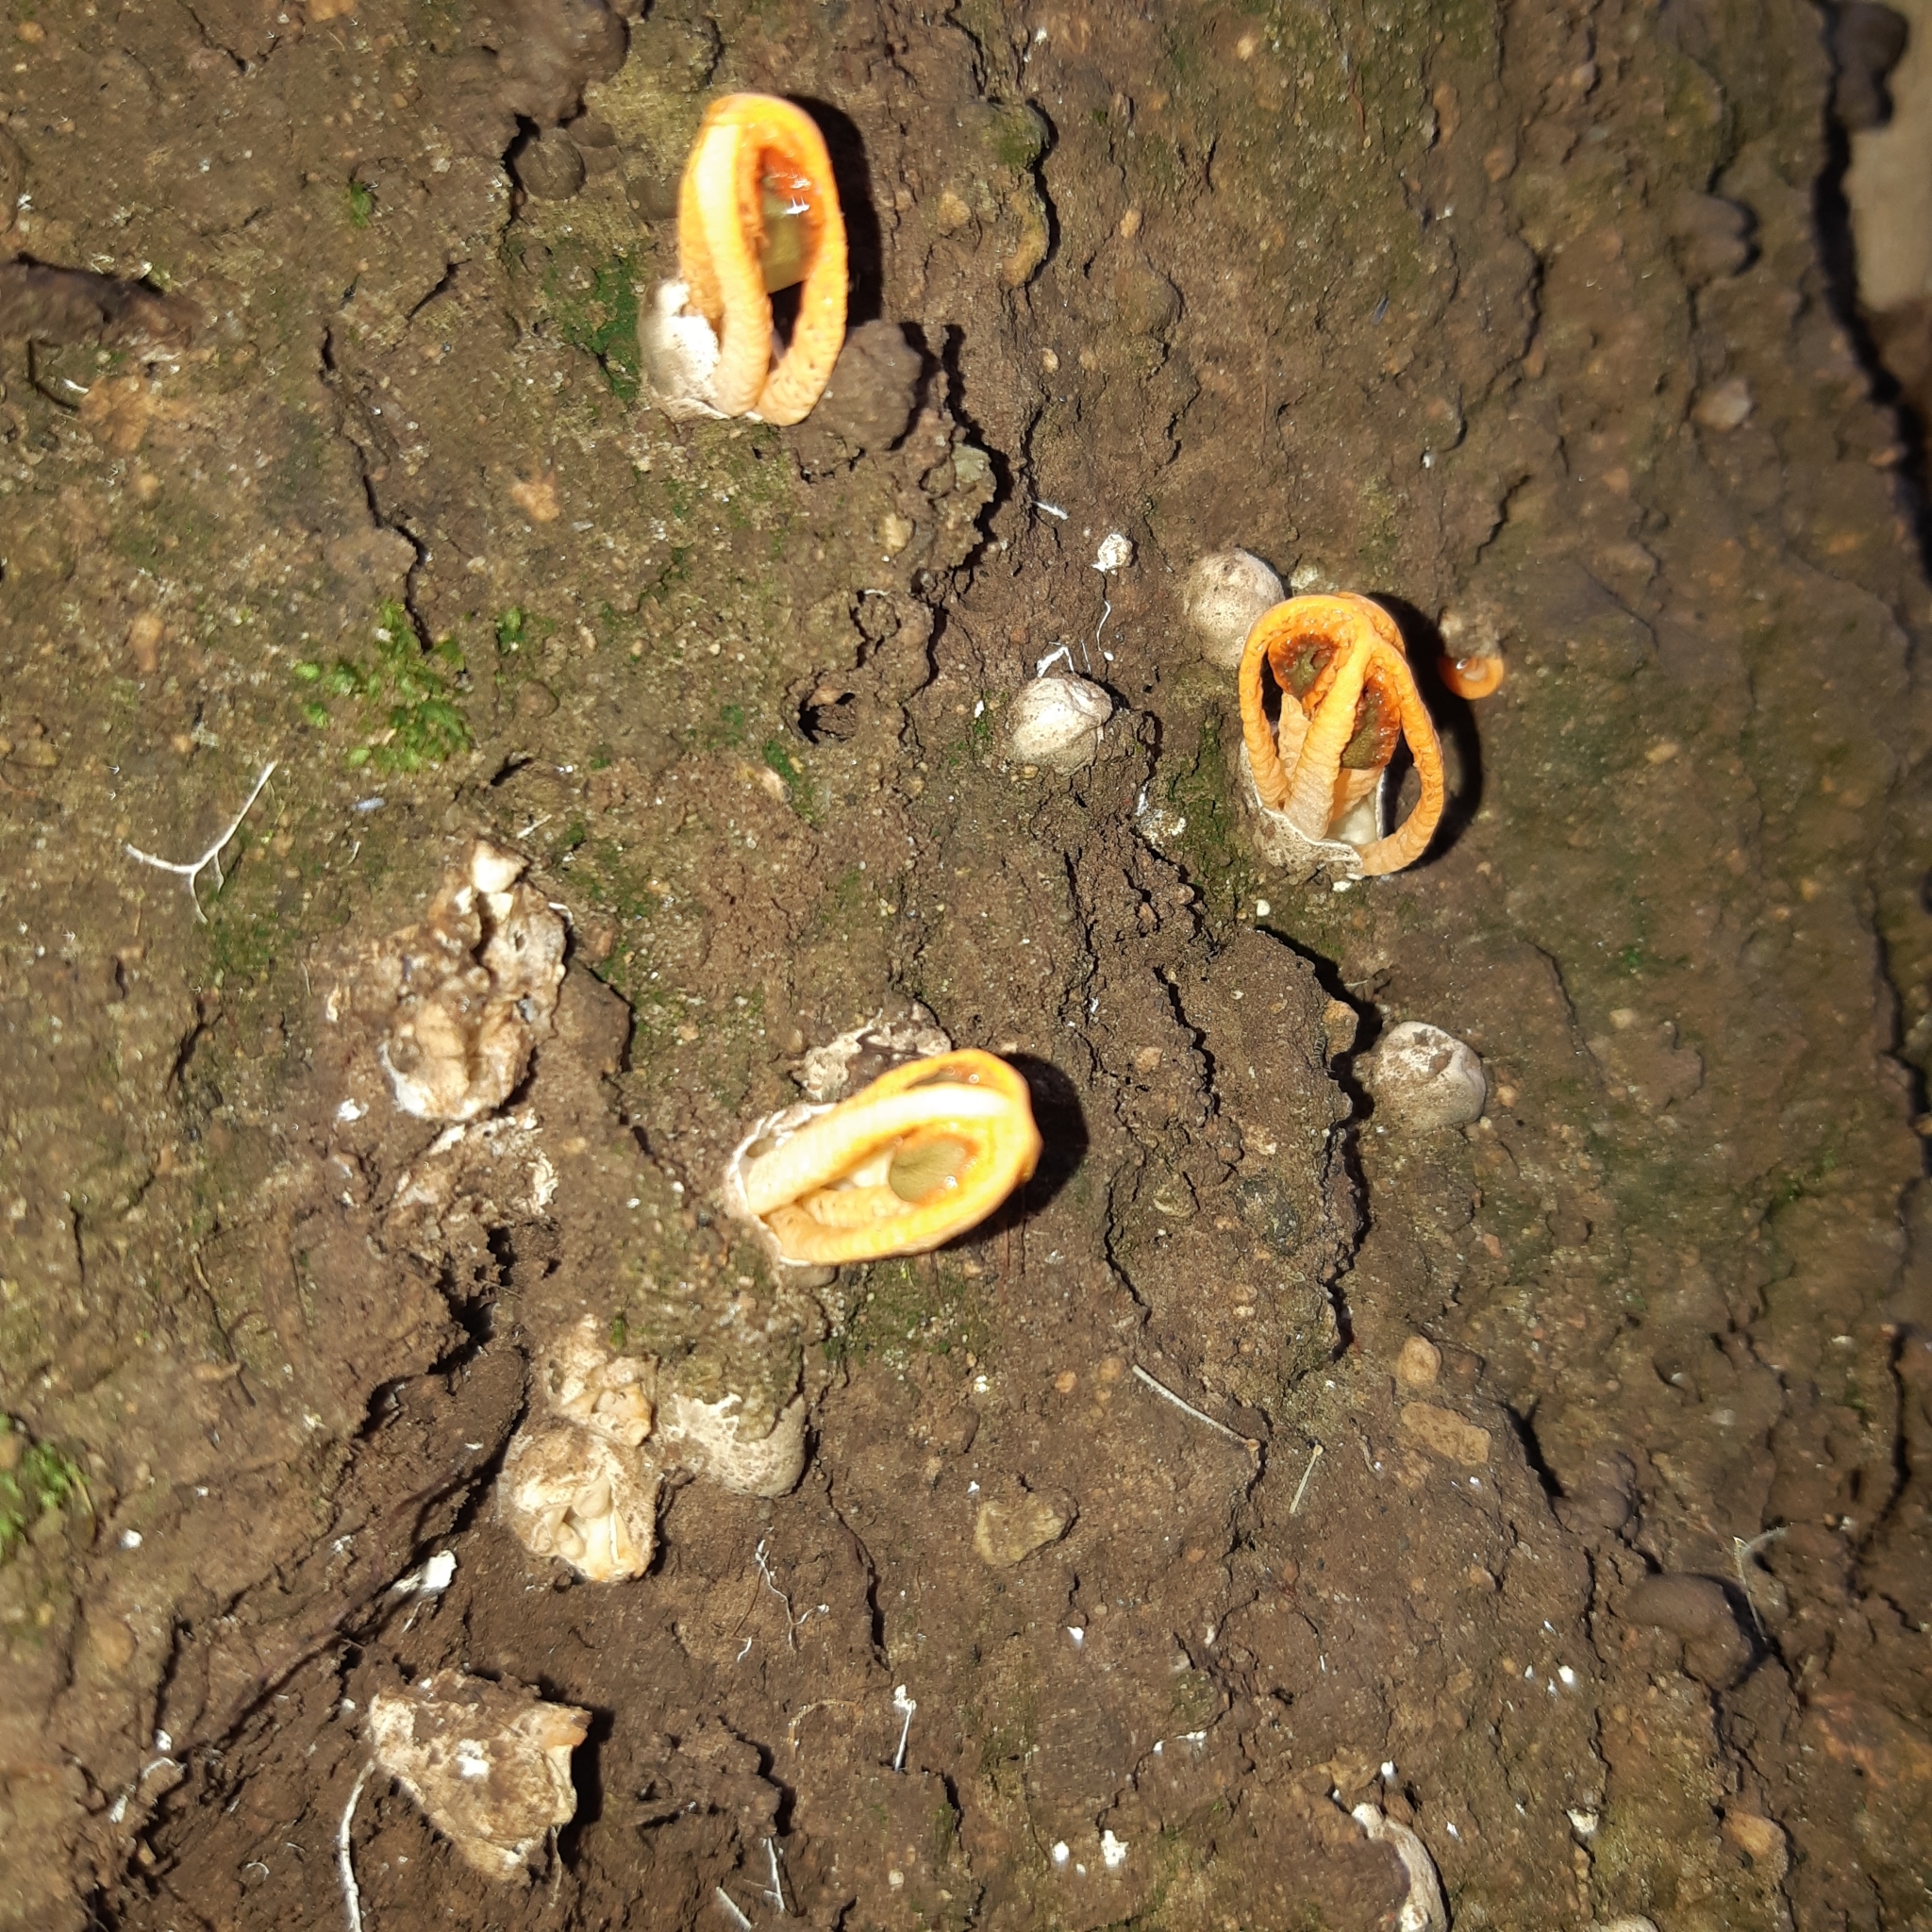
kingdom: Fungi
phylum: Basidiomycota
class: Agaricomycetes
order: Phallales
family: Phallaceae
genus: Laternea
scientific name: Laternea dringii
